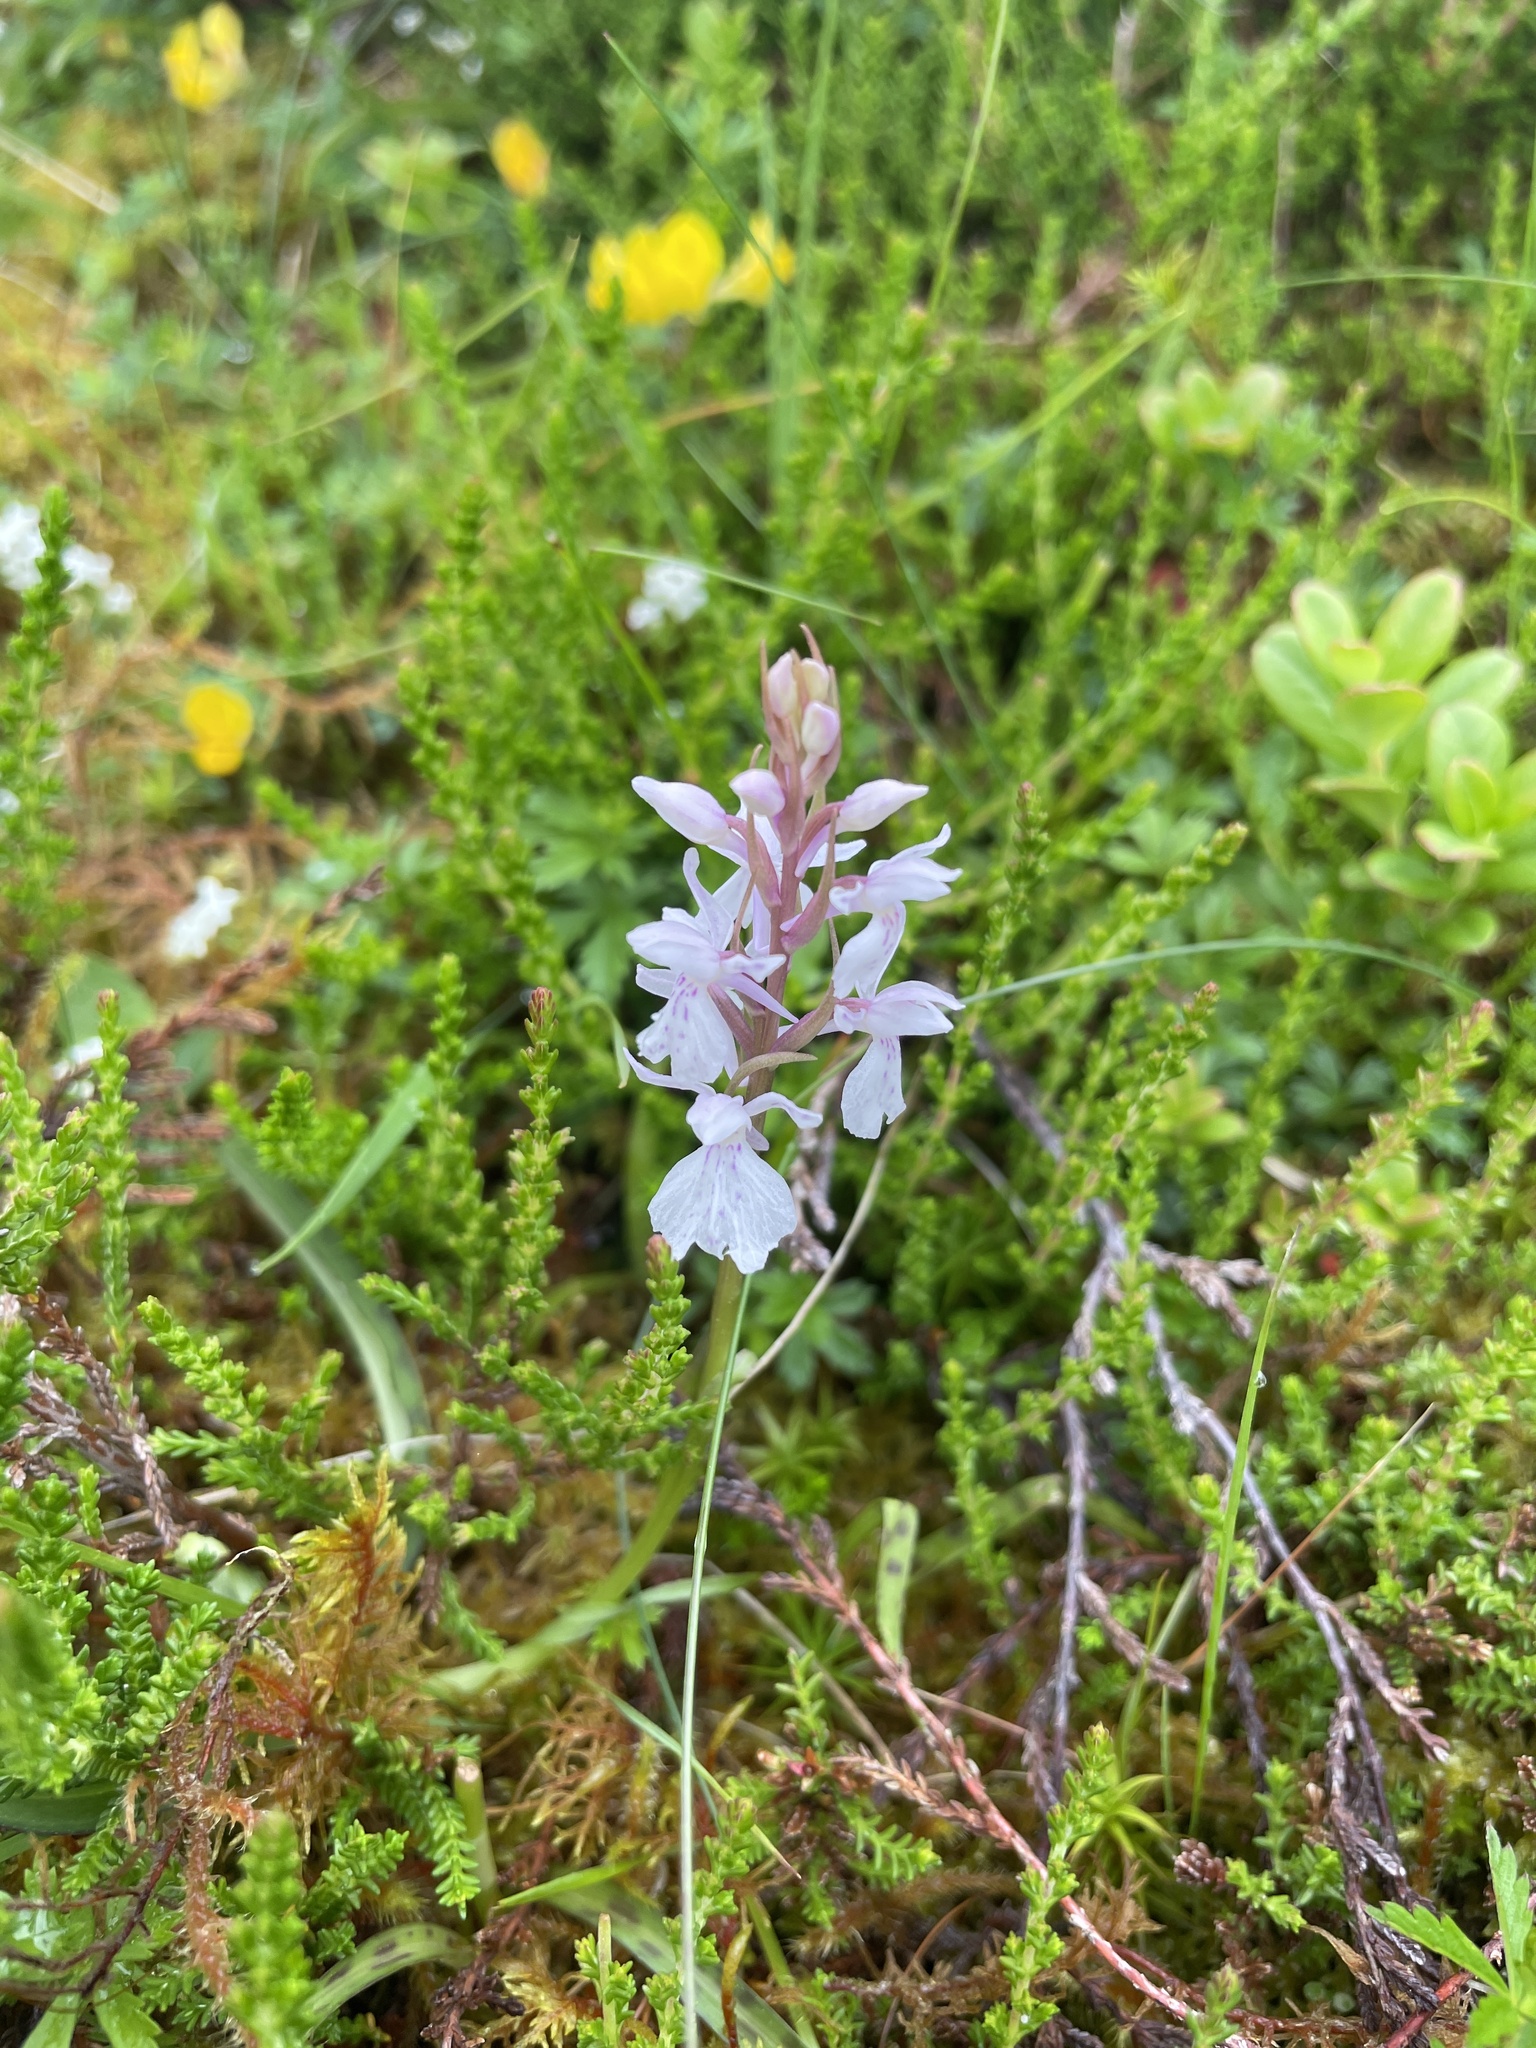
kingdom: Plantae
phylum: Tracheophyta
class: Liliopsida
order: Asparagales
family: Orchidaceae
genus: Dactylorhiza
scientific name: Dactylorhiza maculata
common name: Heath spotted-orchid
